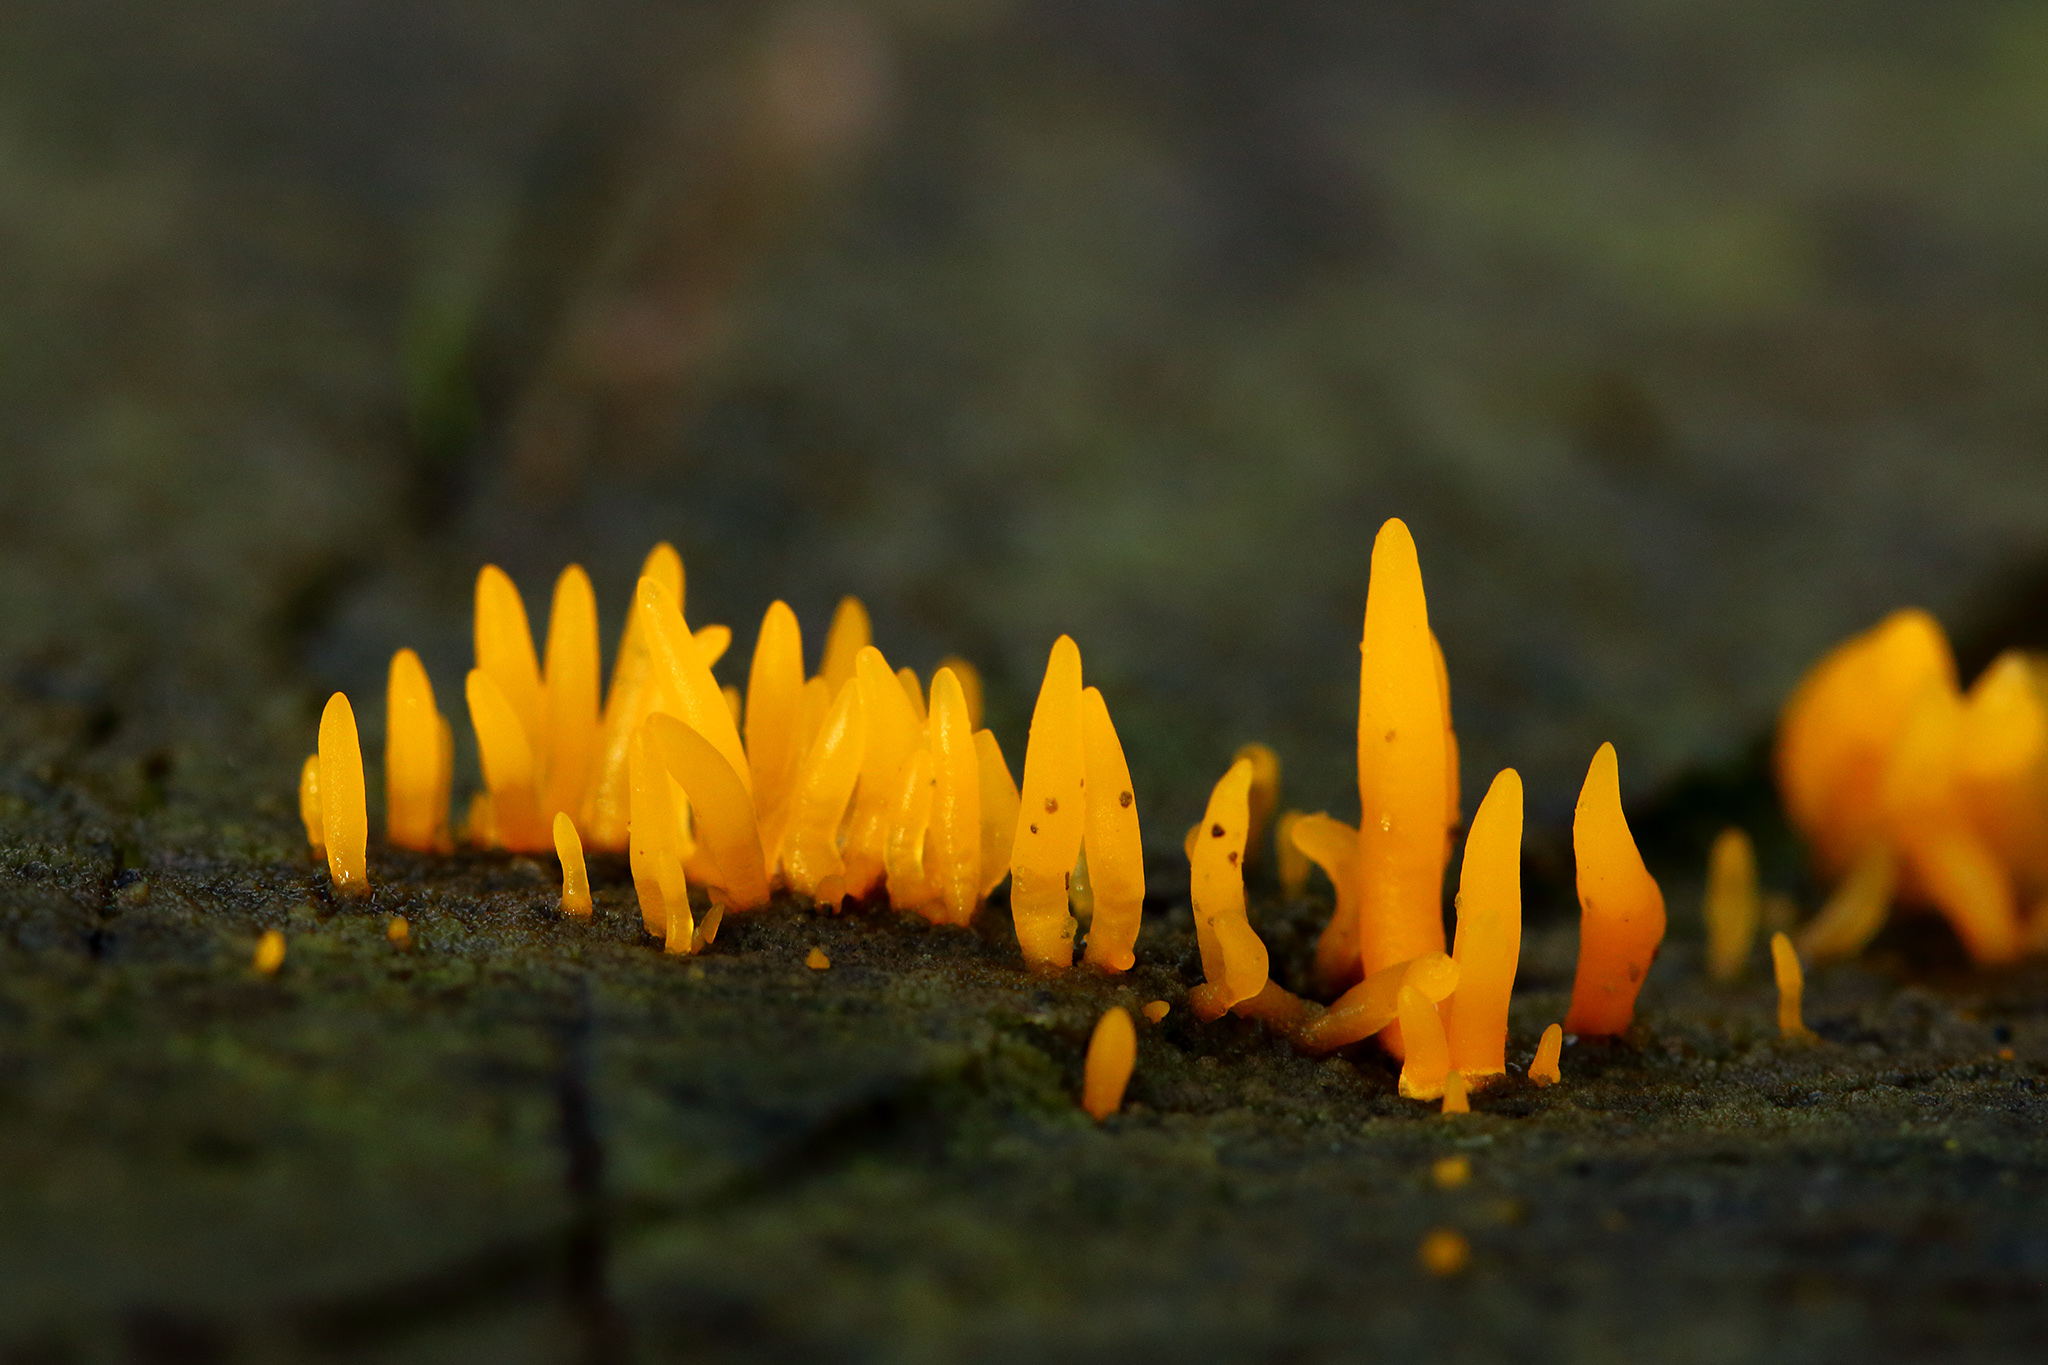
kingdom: Fungi
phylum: Basidiomycota
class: Dacrymycetes
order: Dacrymycetales
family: Dacrymycetaceae
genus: Calocera
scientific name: Calocera cornea
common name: Small stagshorn
